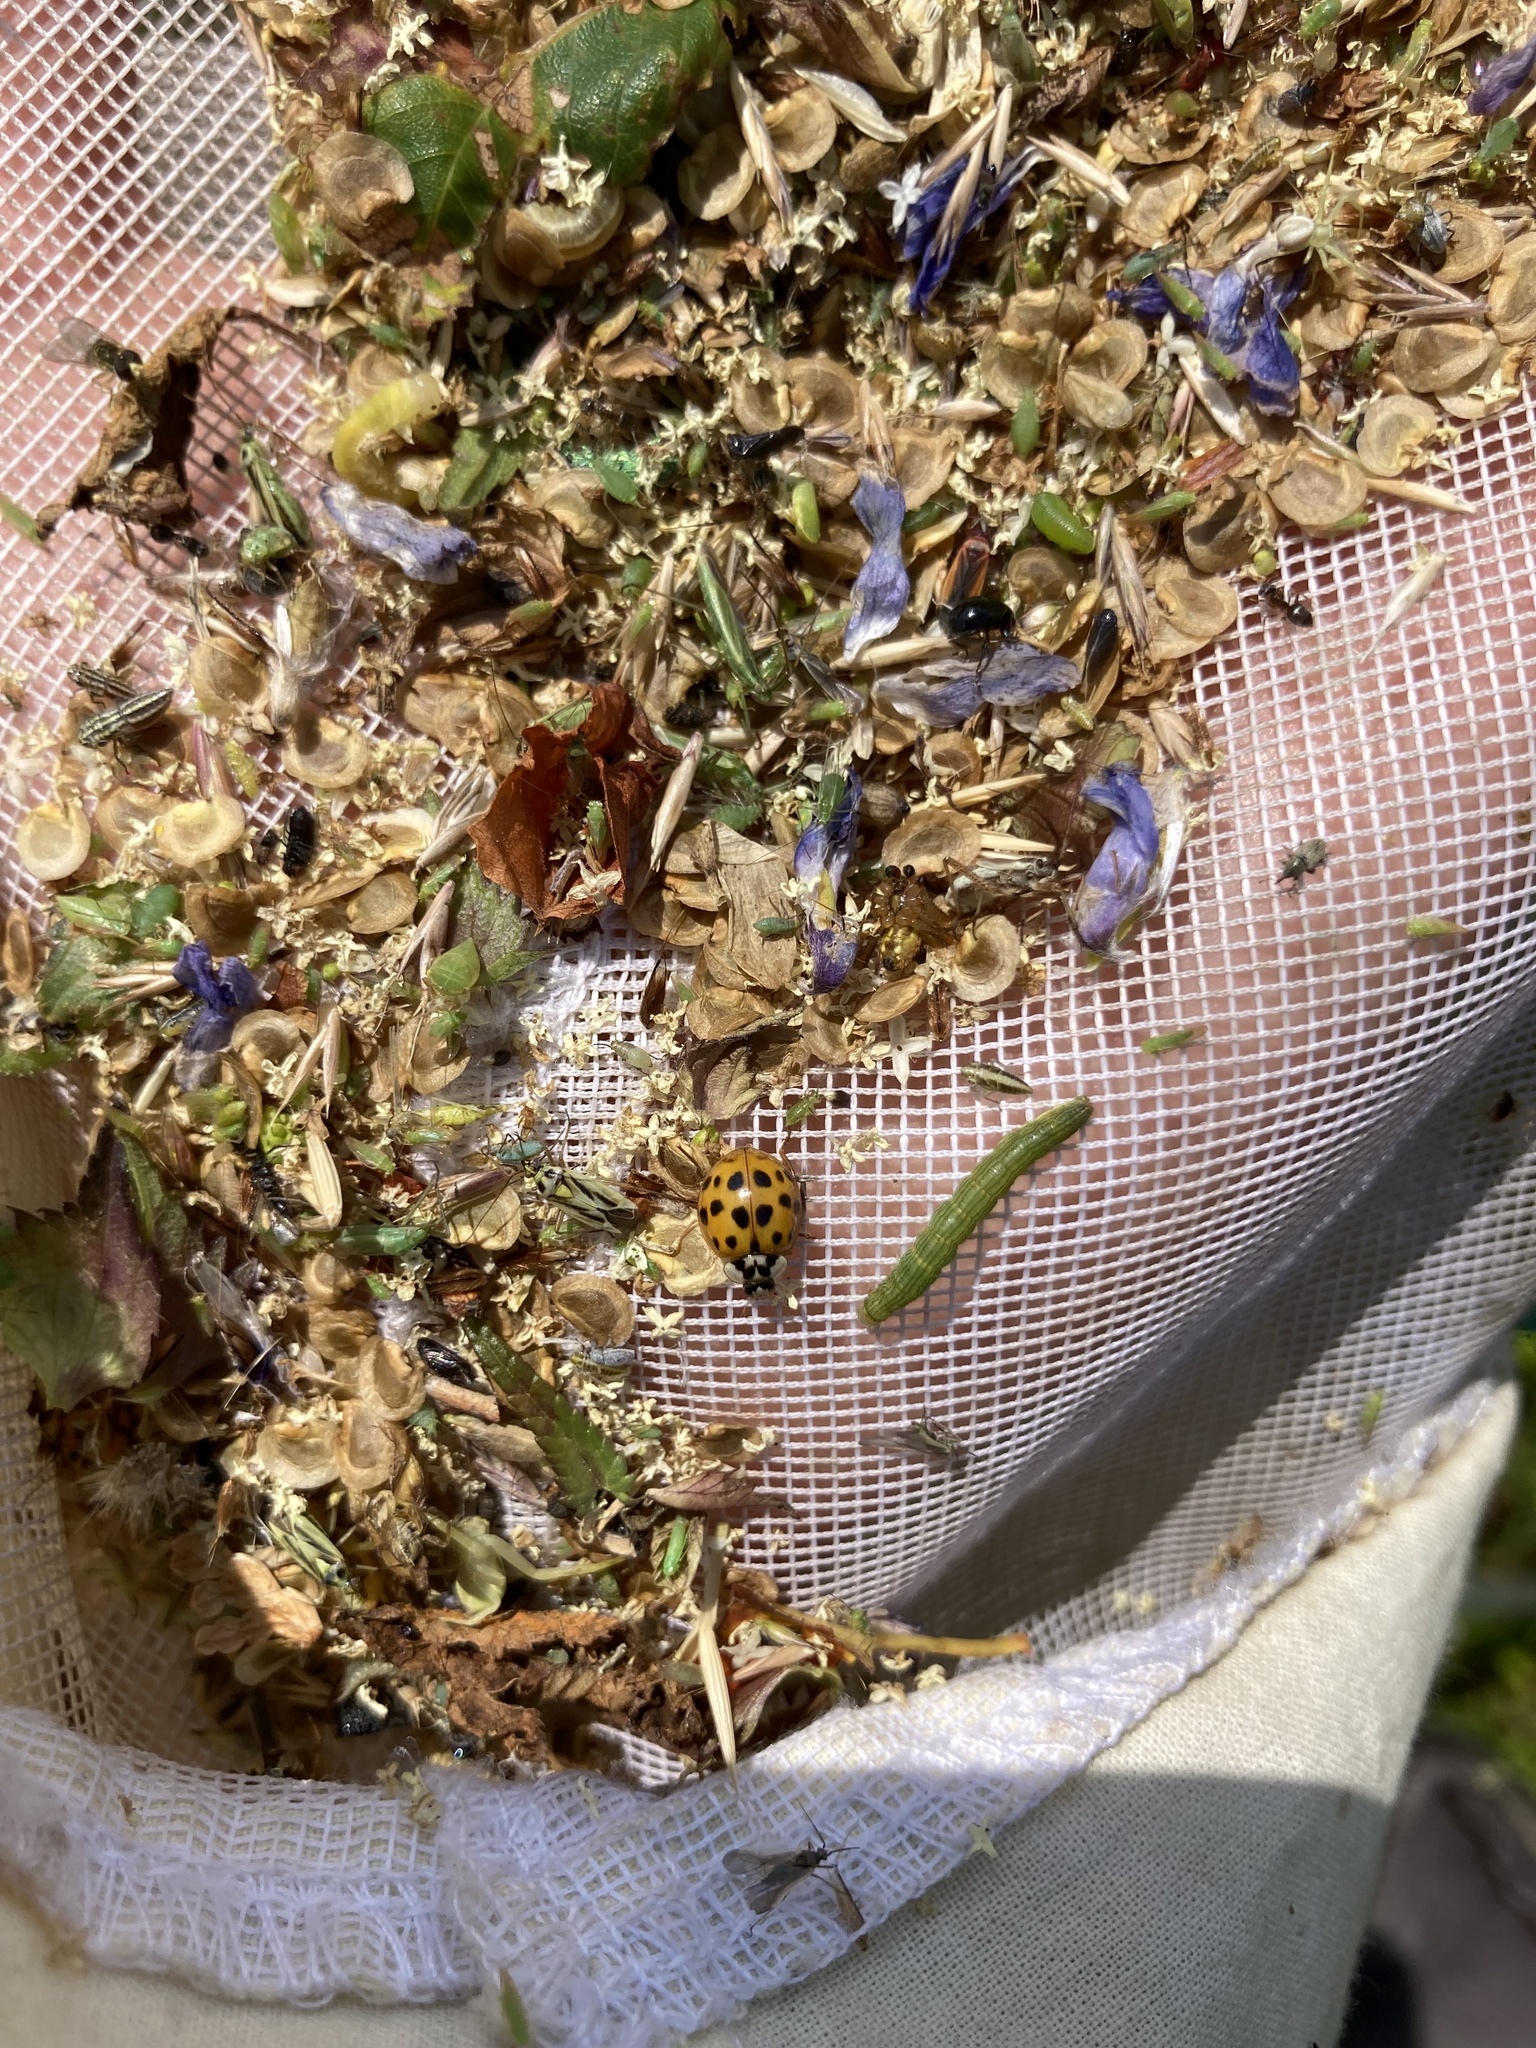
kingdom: Animalia
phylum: Arthropoda
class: Insecta
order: Coleoptera
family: Coccinellidae
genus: Harmonia
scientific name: Harmonia axyridis
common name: Harlequin ladybird
